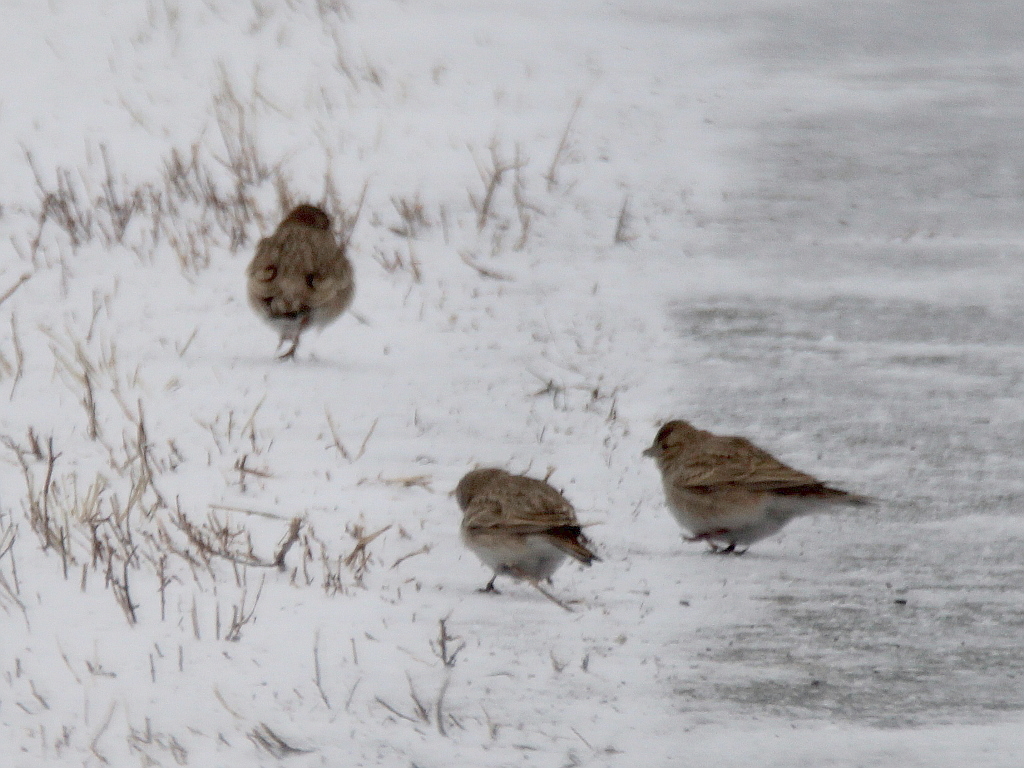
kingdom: Animalia
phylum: Chordata
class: Aves
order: Passeriformes
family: Alaudidae
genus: Calandrella
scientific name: Calandrella rufescens
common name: Lesser short-toed lark
